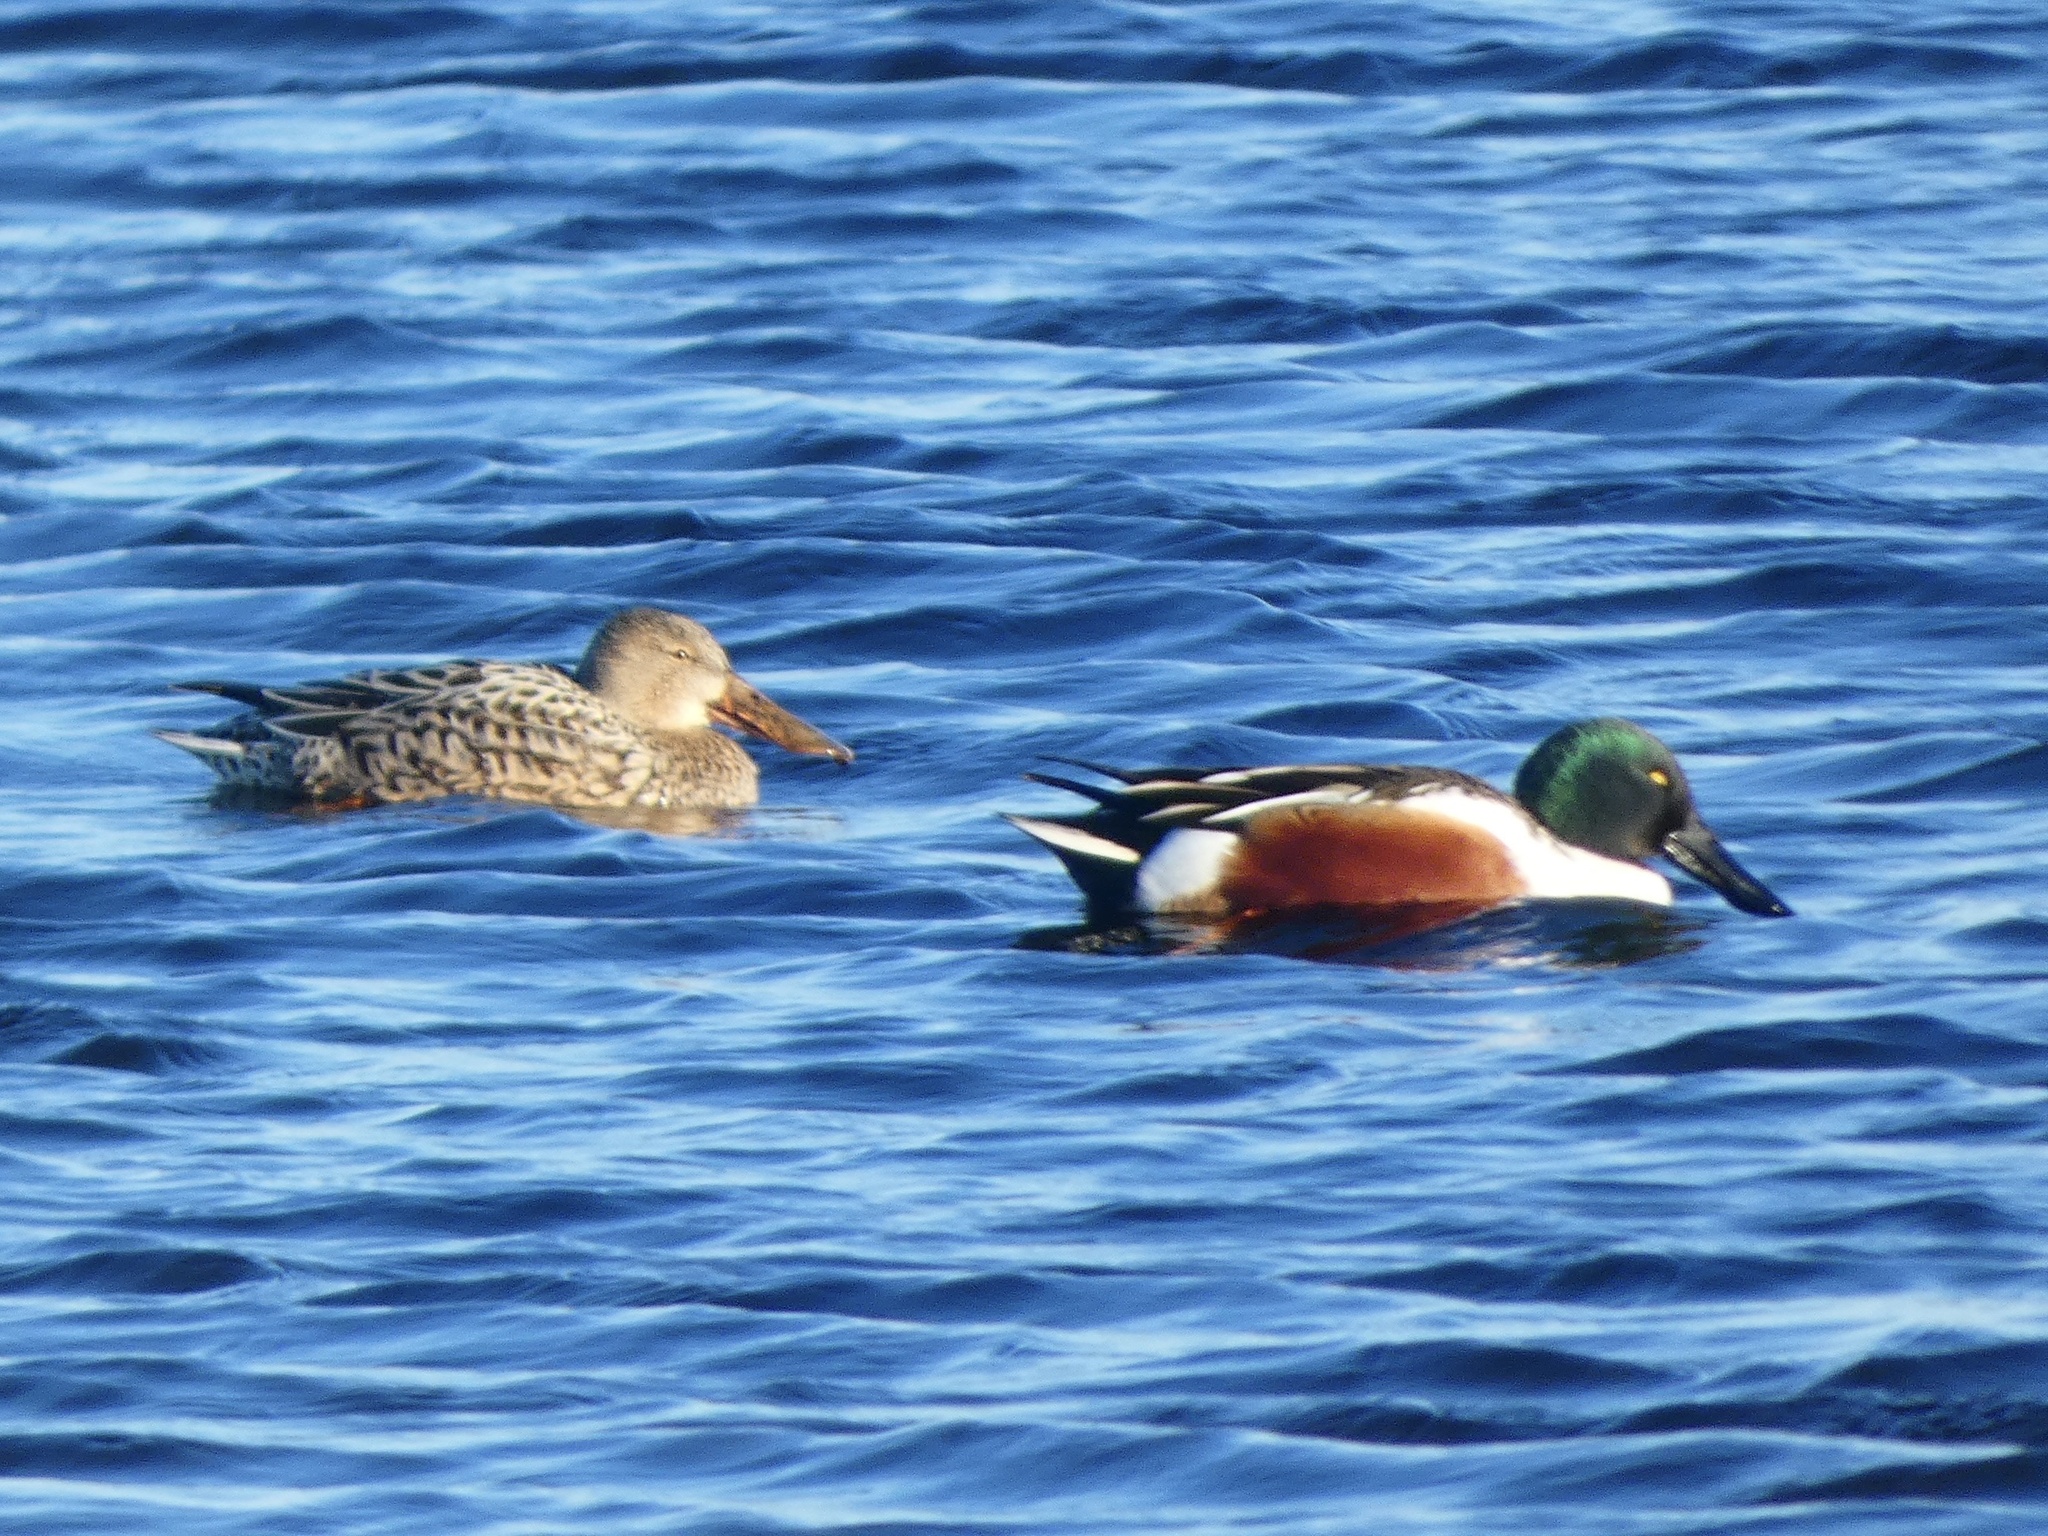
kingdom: Animalia
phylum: Chordata
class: Aves
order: Anseriformes
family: Anatidae
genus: Spatula
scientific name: Spatula clypeata
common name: Northern shoveler
